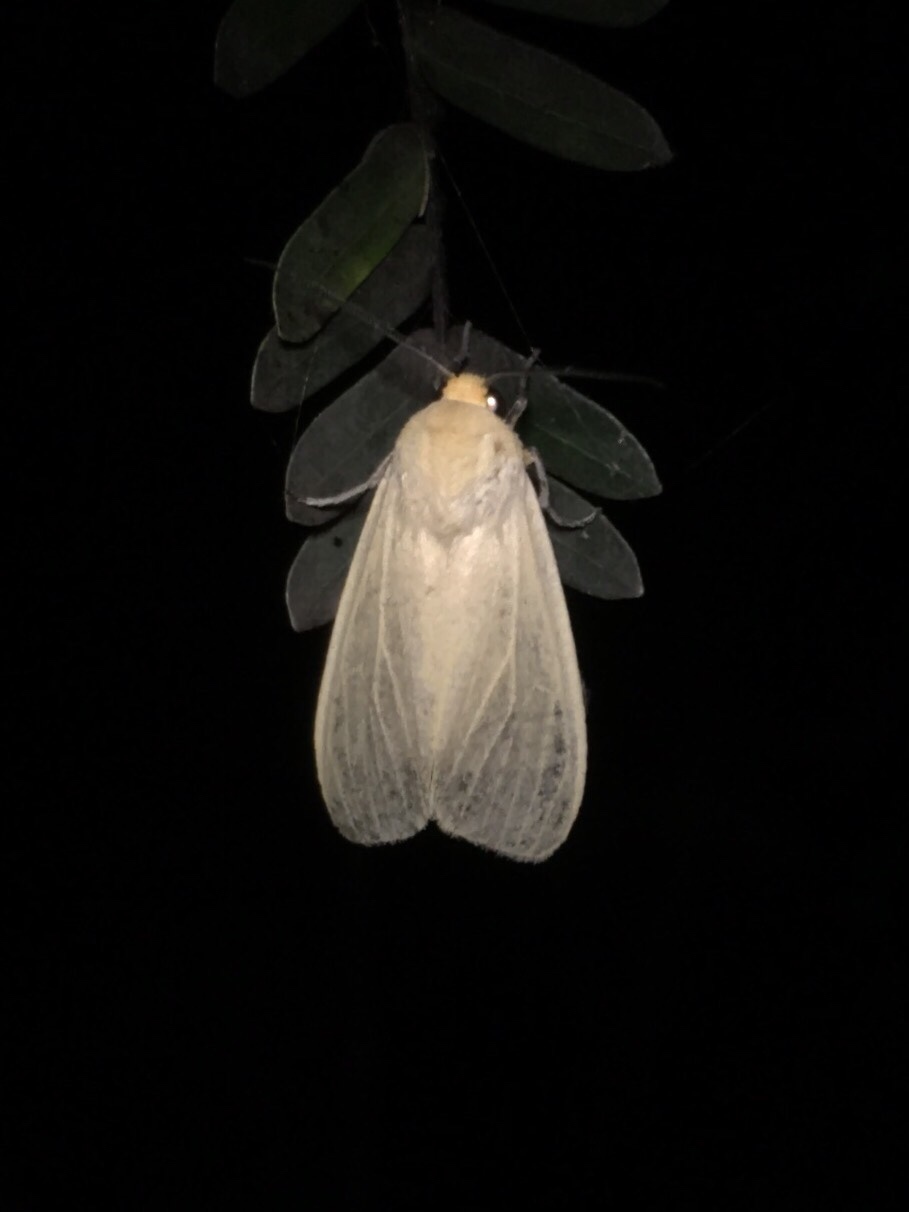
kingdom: Animalia
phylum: Arthropoda
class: Insecta
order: Lepidoptera
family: Erebidae
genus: Pareuchaetes
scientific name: Pareuchaetes insulata
